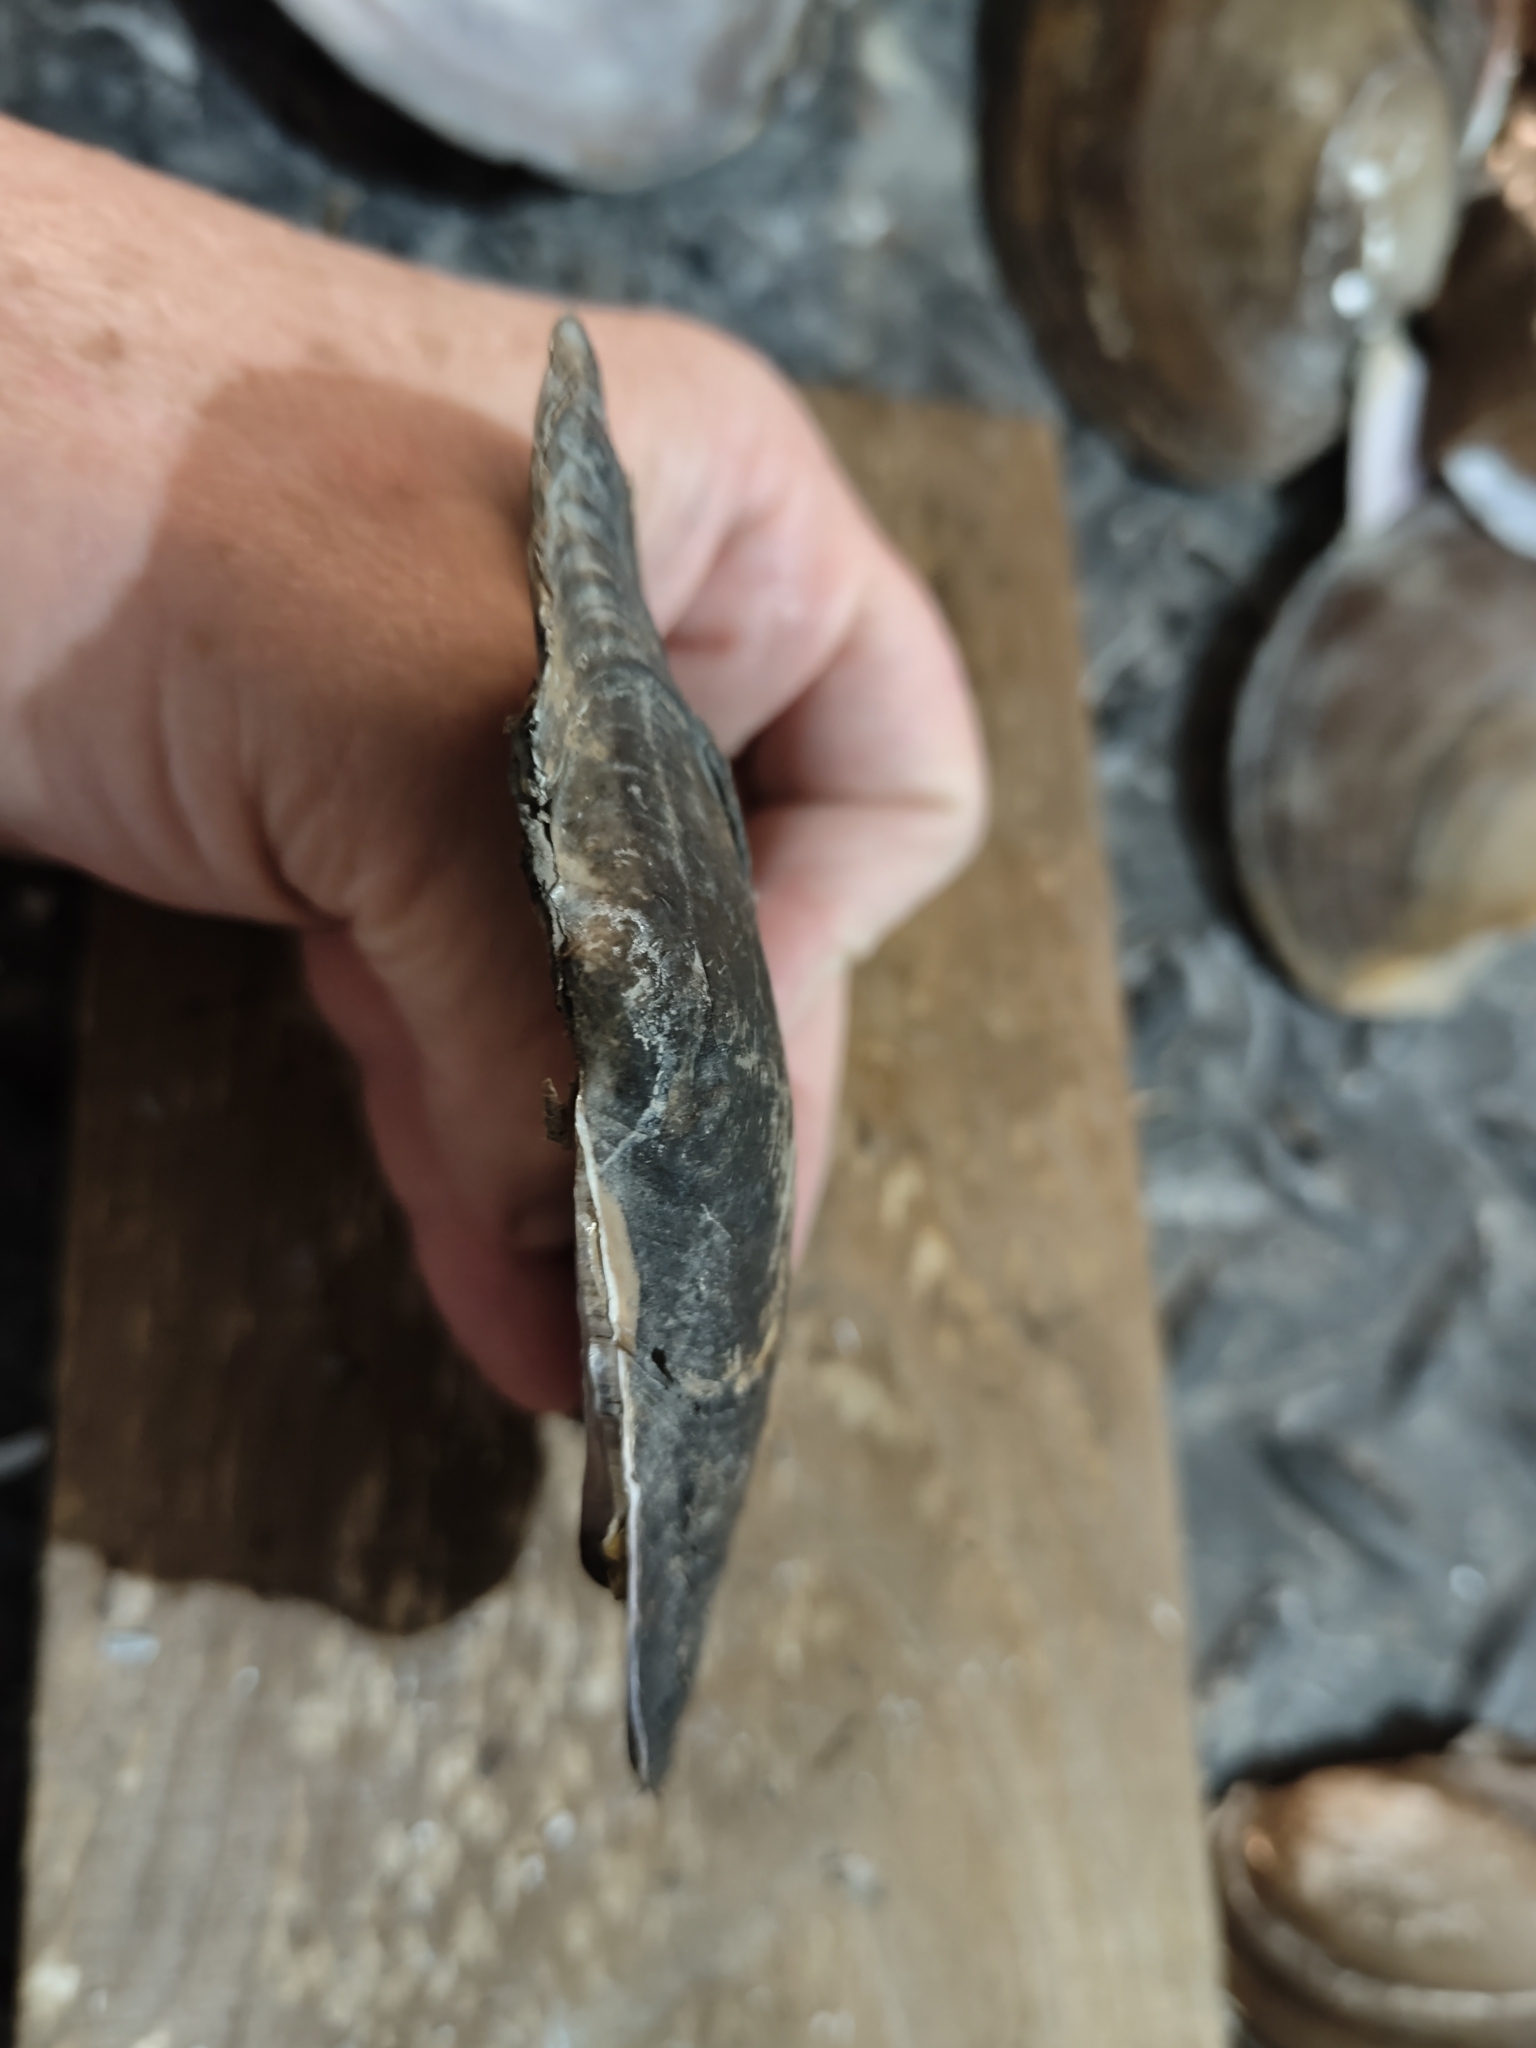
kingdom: Animalia
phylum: Mollusca
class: Bivalvia
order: Unionida
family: Unionidae
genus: Potamilus
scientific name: Potamilus ohiensis
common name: Pink papershell
